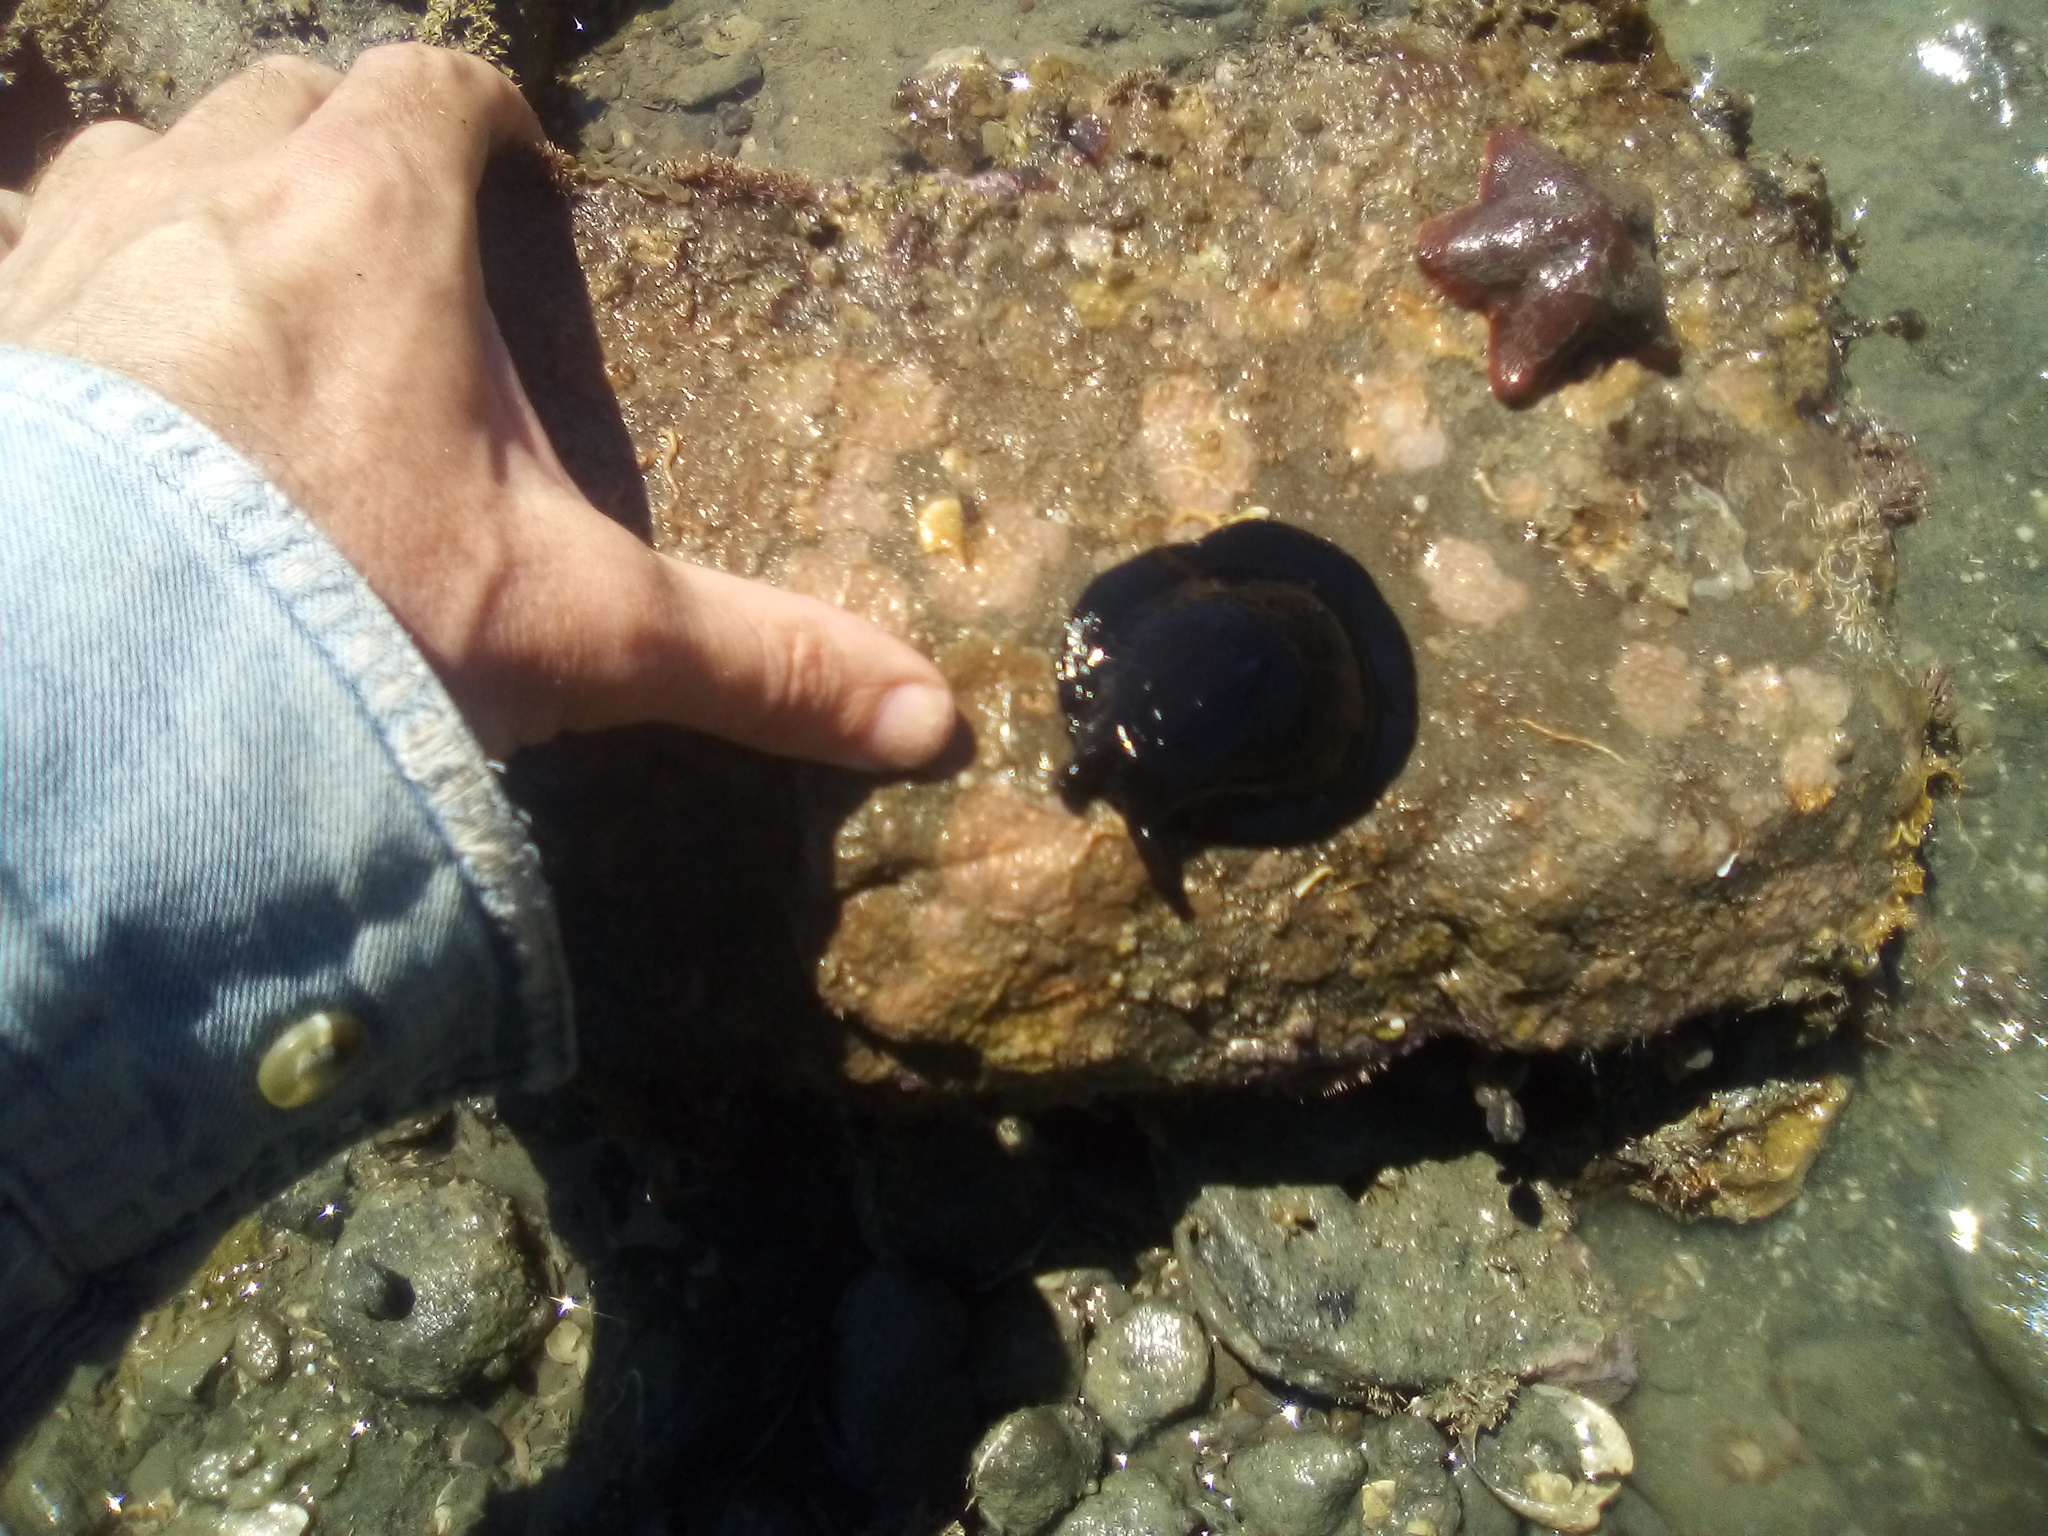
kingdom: Animalia
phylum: Mollusca
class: Gastropoda
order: Lepetellida
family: Fissurellidae
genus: Scutus
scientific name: Scutus breviculus
